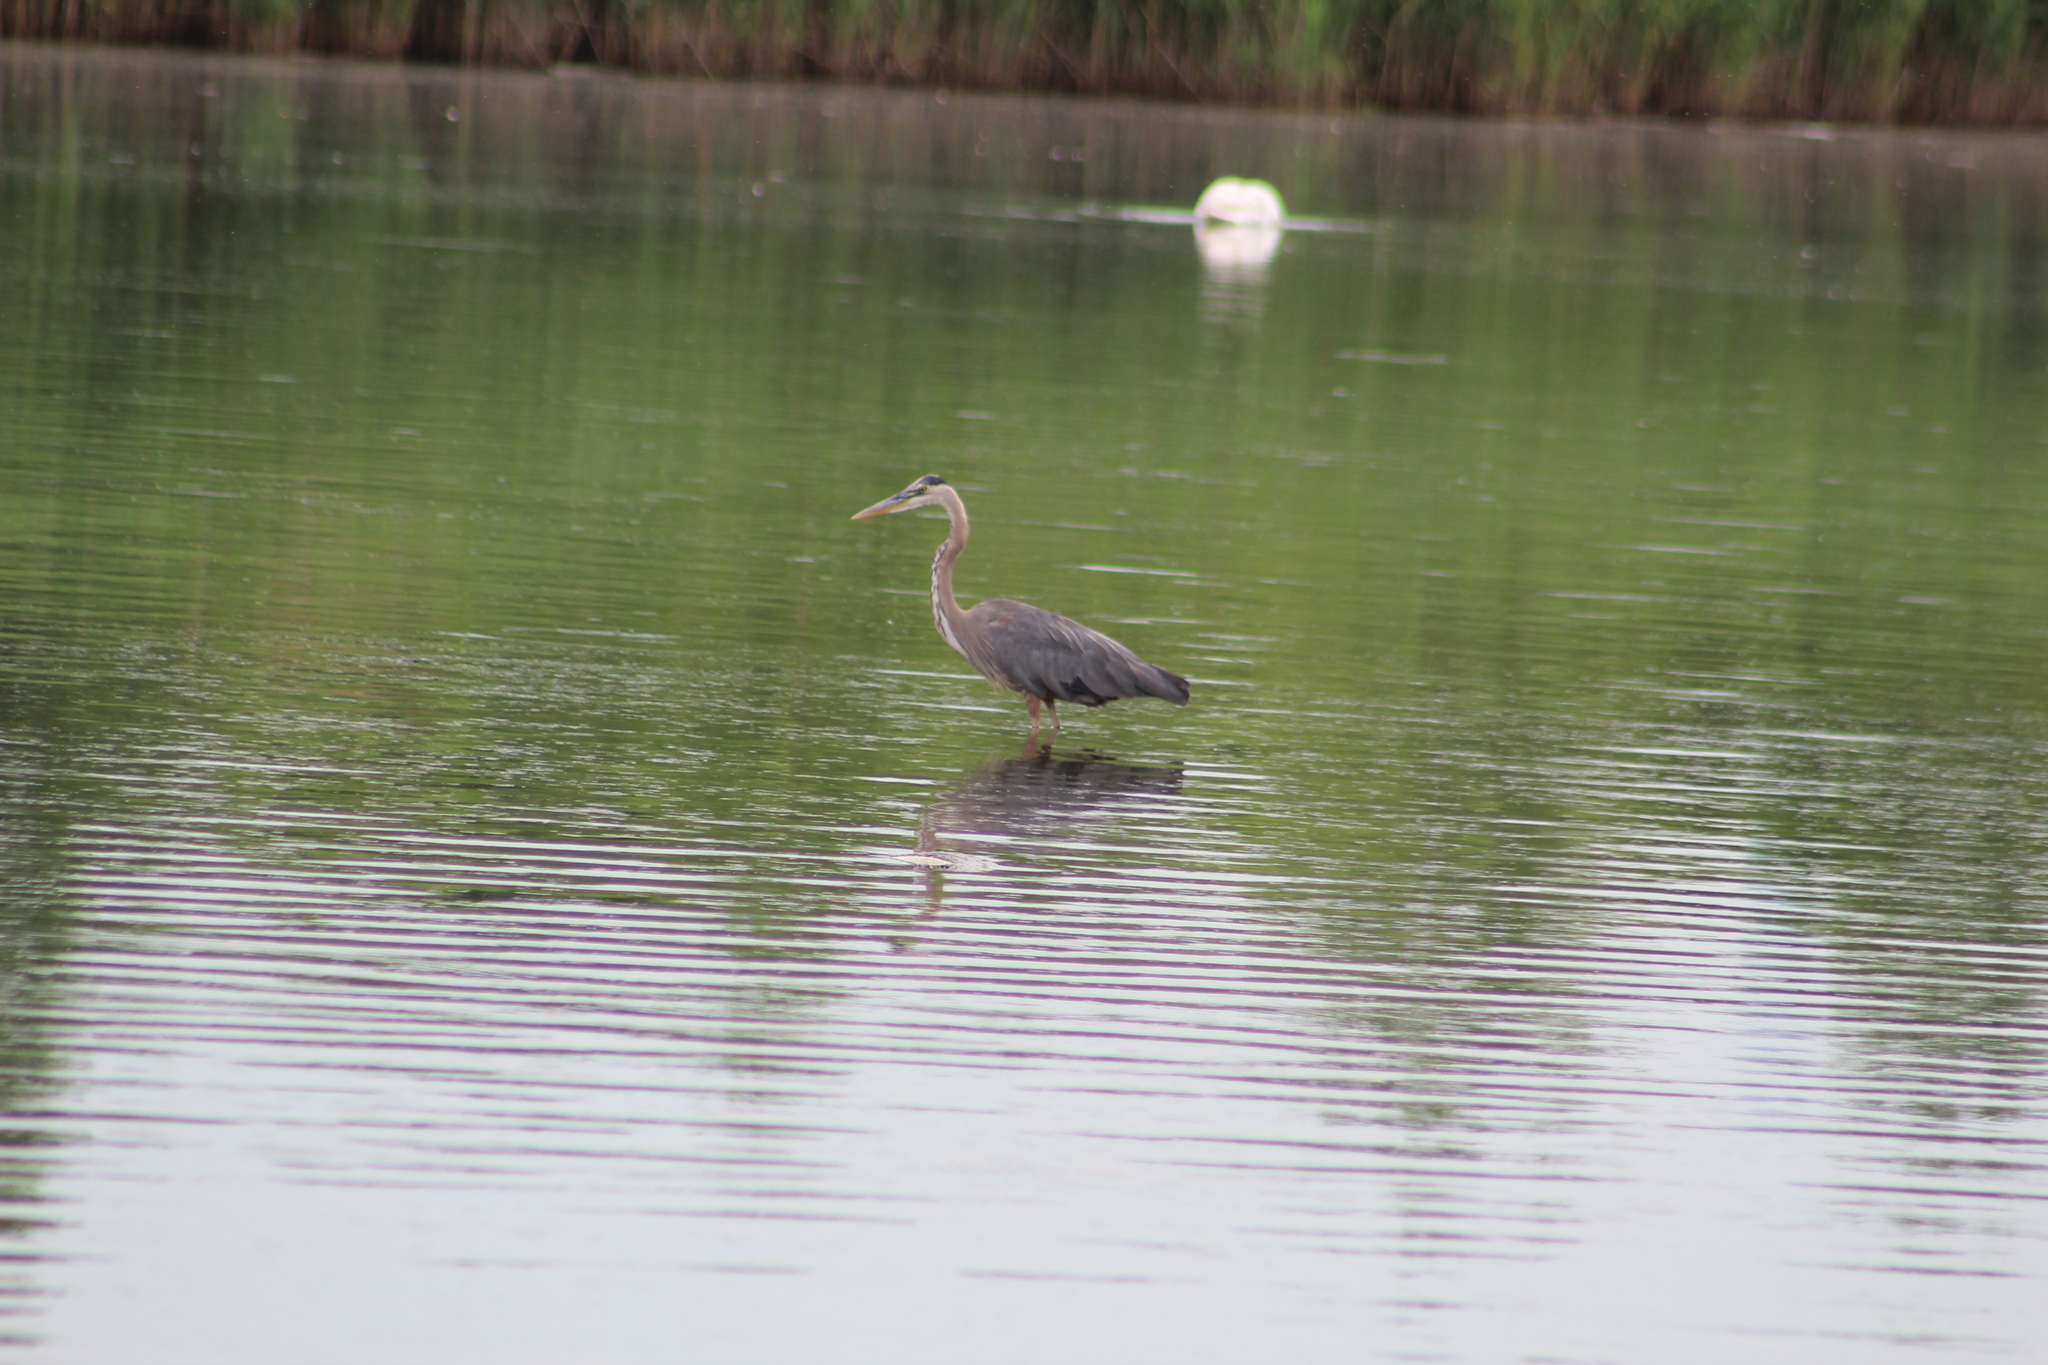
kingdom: Animalia
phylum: Chordata
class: Aves
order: Pelecaniformes
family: Ardeidae
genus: Ardea
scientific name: Ardea herodias
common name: Great blue heron
